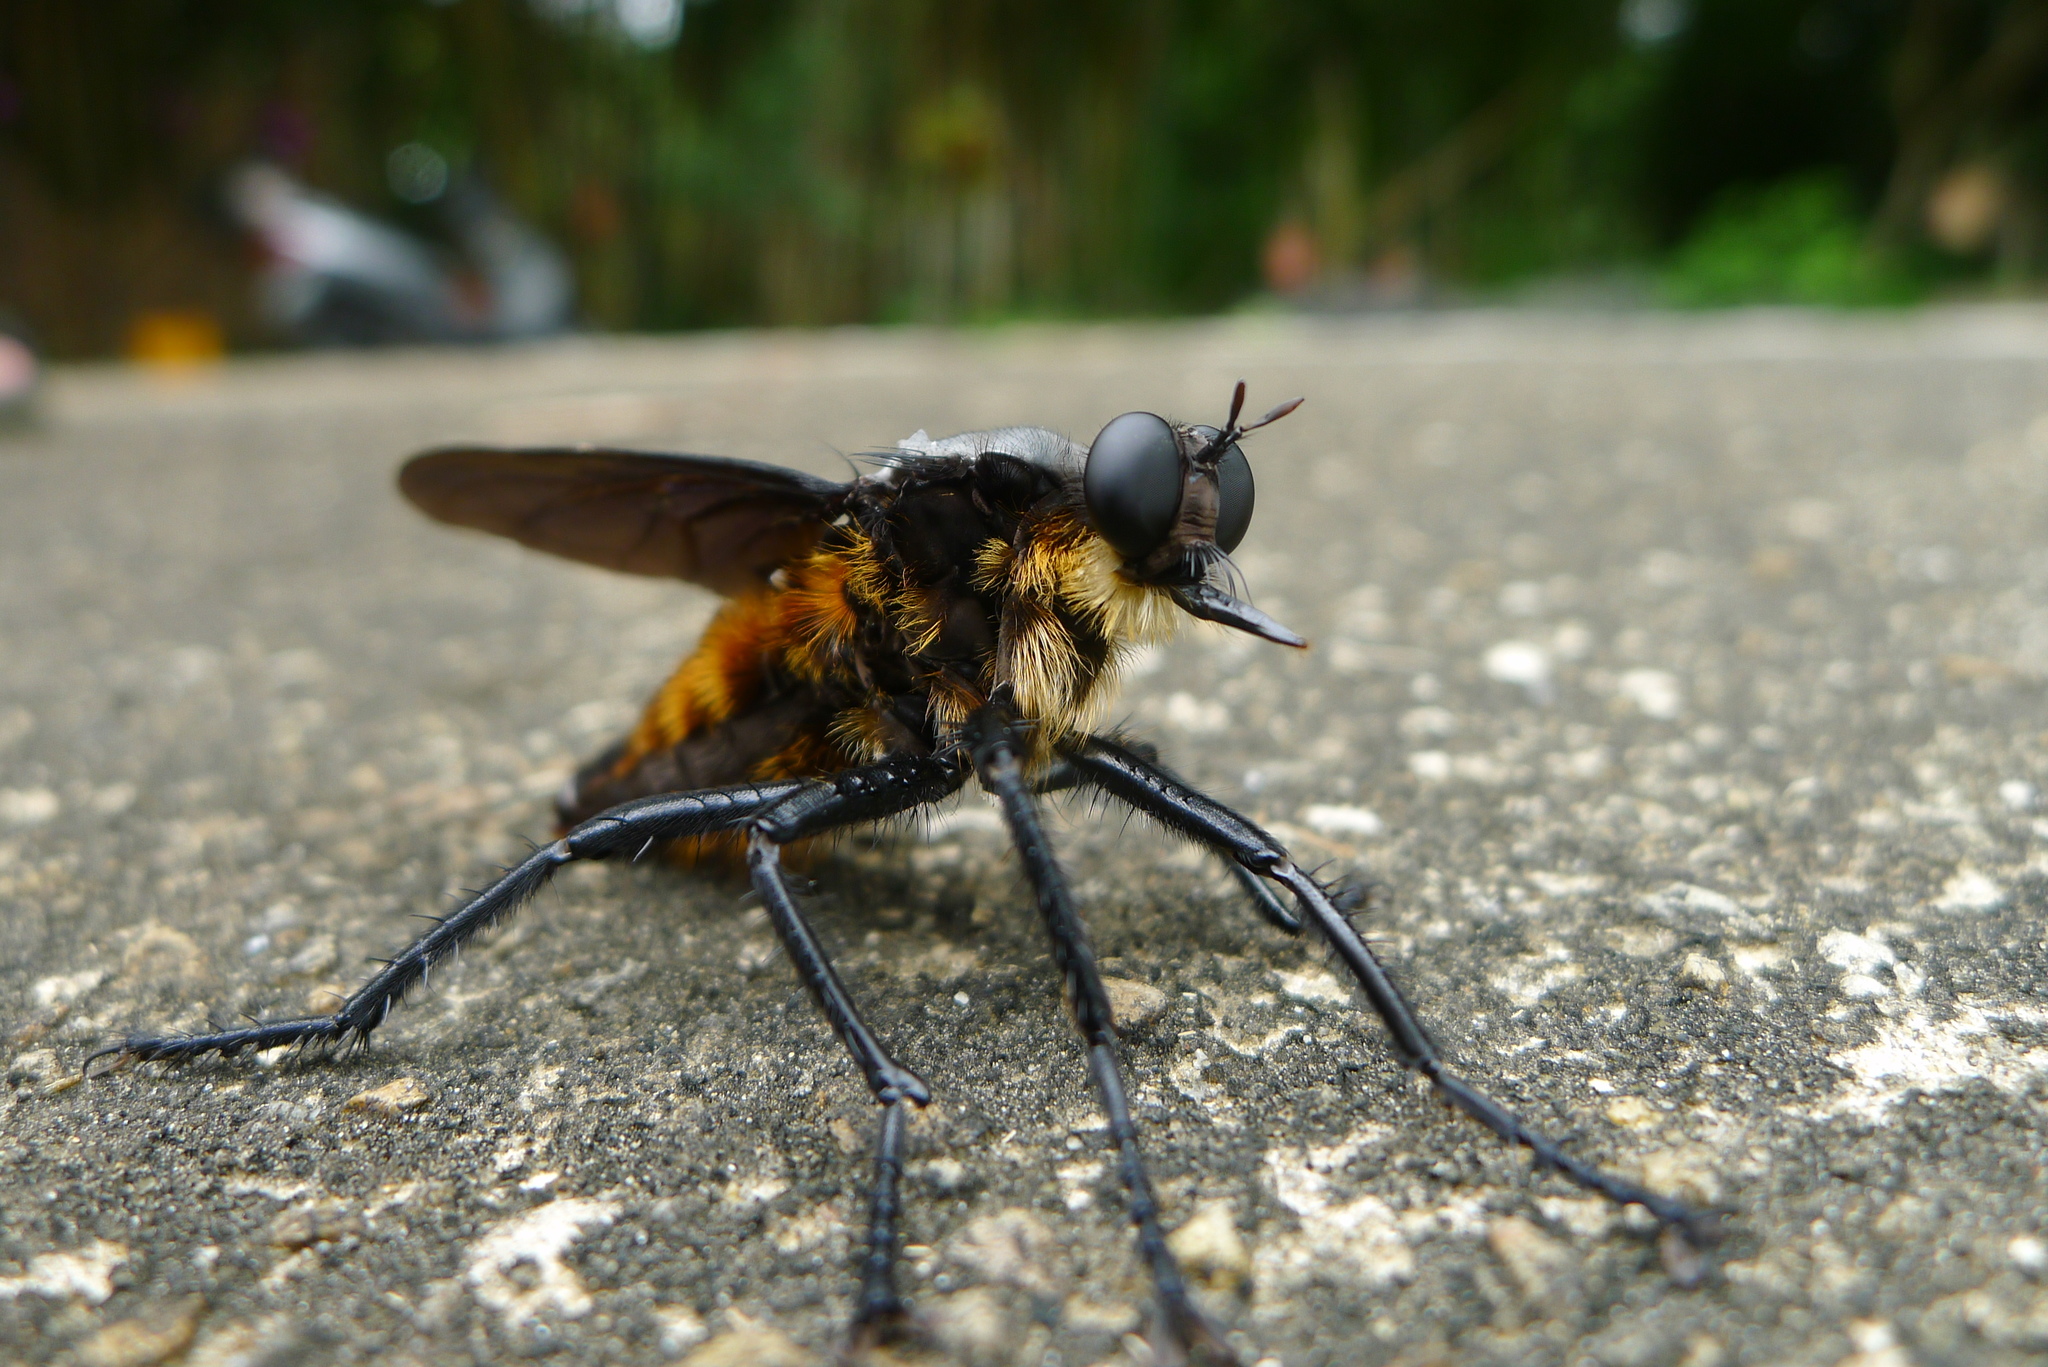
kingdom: Animalia
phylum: Arthropoda
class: Insecta
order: Diptera
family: Asilidae
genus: Microstylum
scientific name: Microstylum oberthurii
